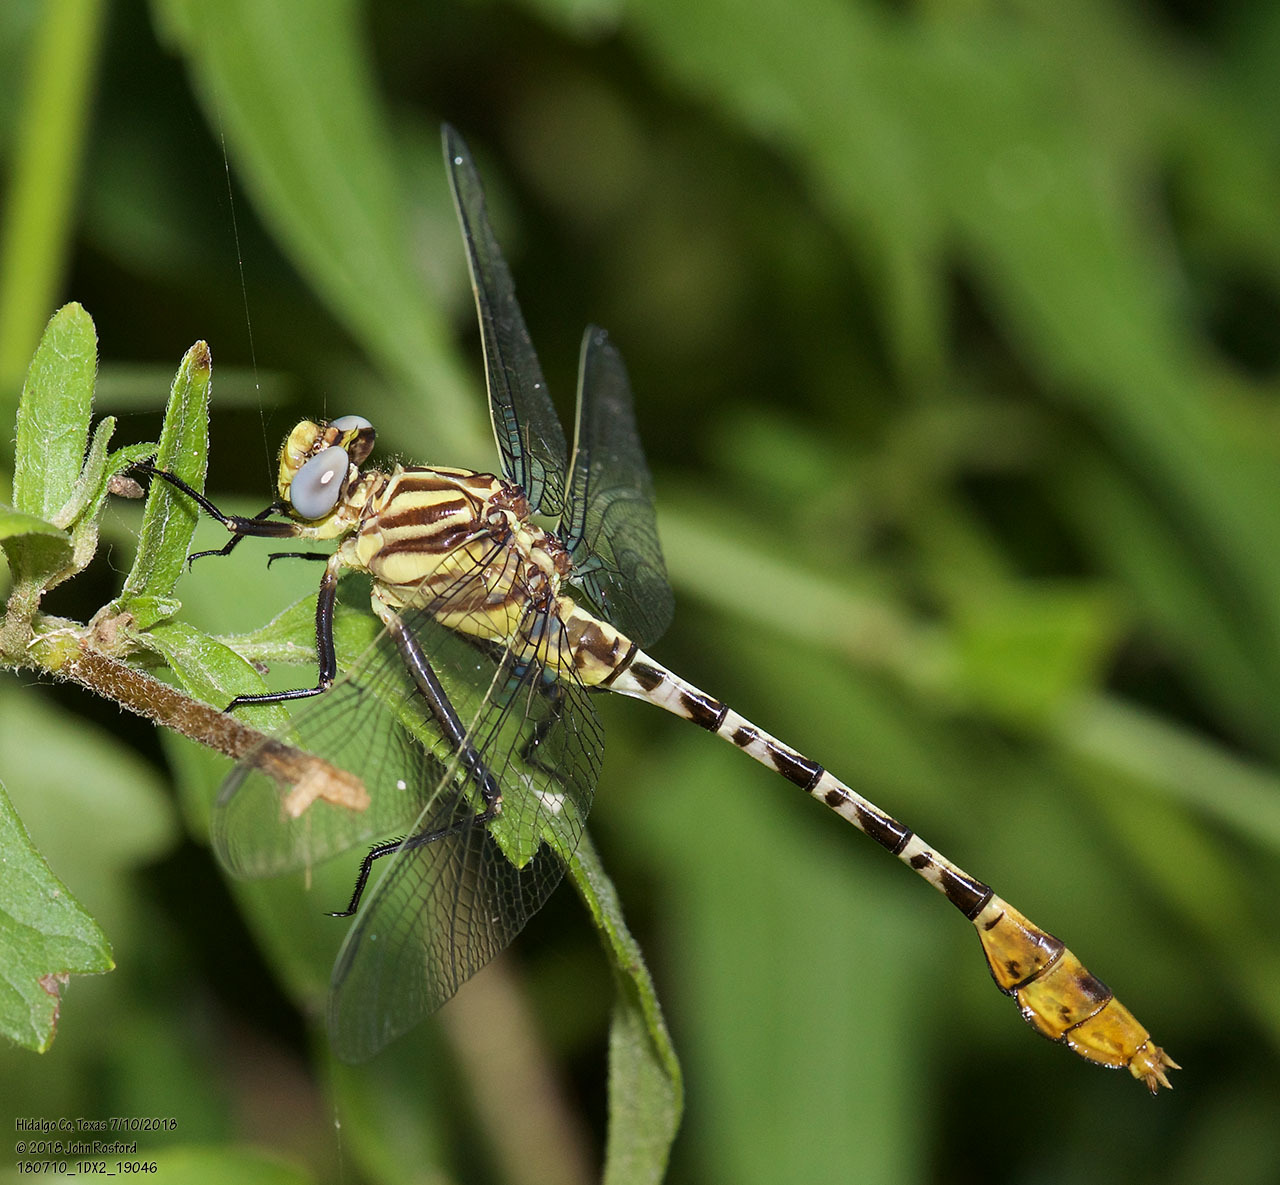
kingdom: Animalia
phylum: Arthropoda
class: Insecta
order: Odonata
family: Gomphidae
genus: Dromogomphus
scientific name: Dromogomphus spoliatus
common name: Flag-tailed spinyleg
